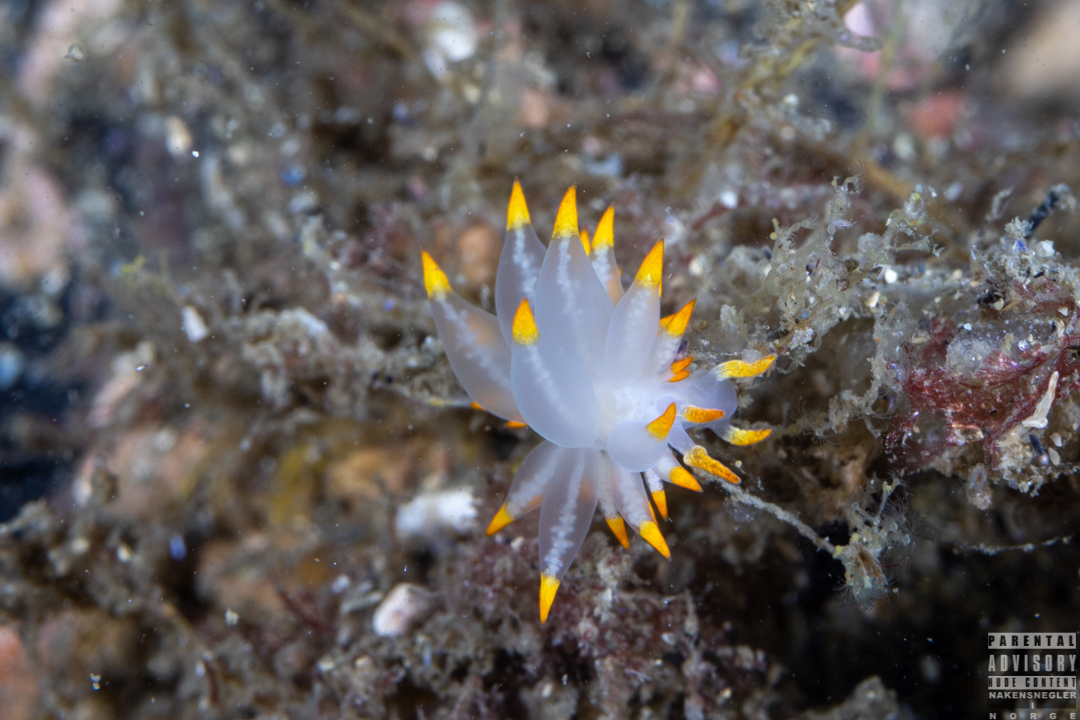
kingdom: Animalia
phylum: Mollusca
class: Gastropoda
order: Nudibranchia
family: Eubranchidae
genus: Amphorina
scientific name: Amphorina farrani
